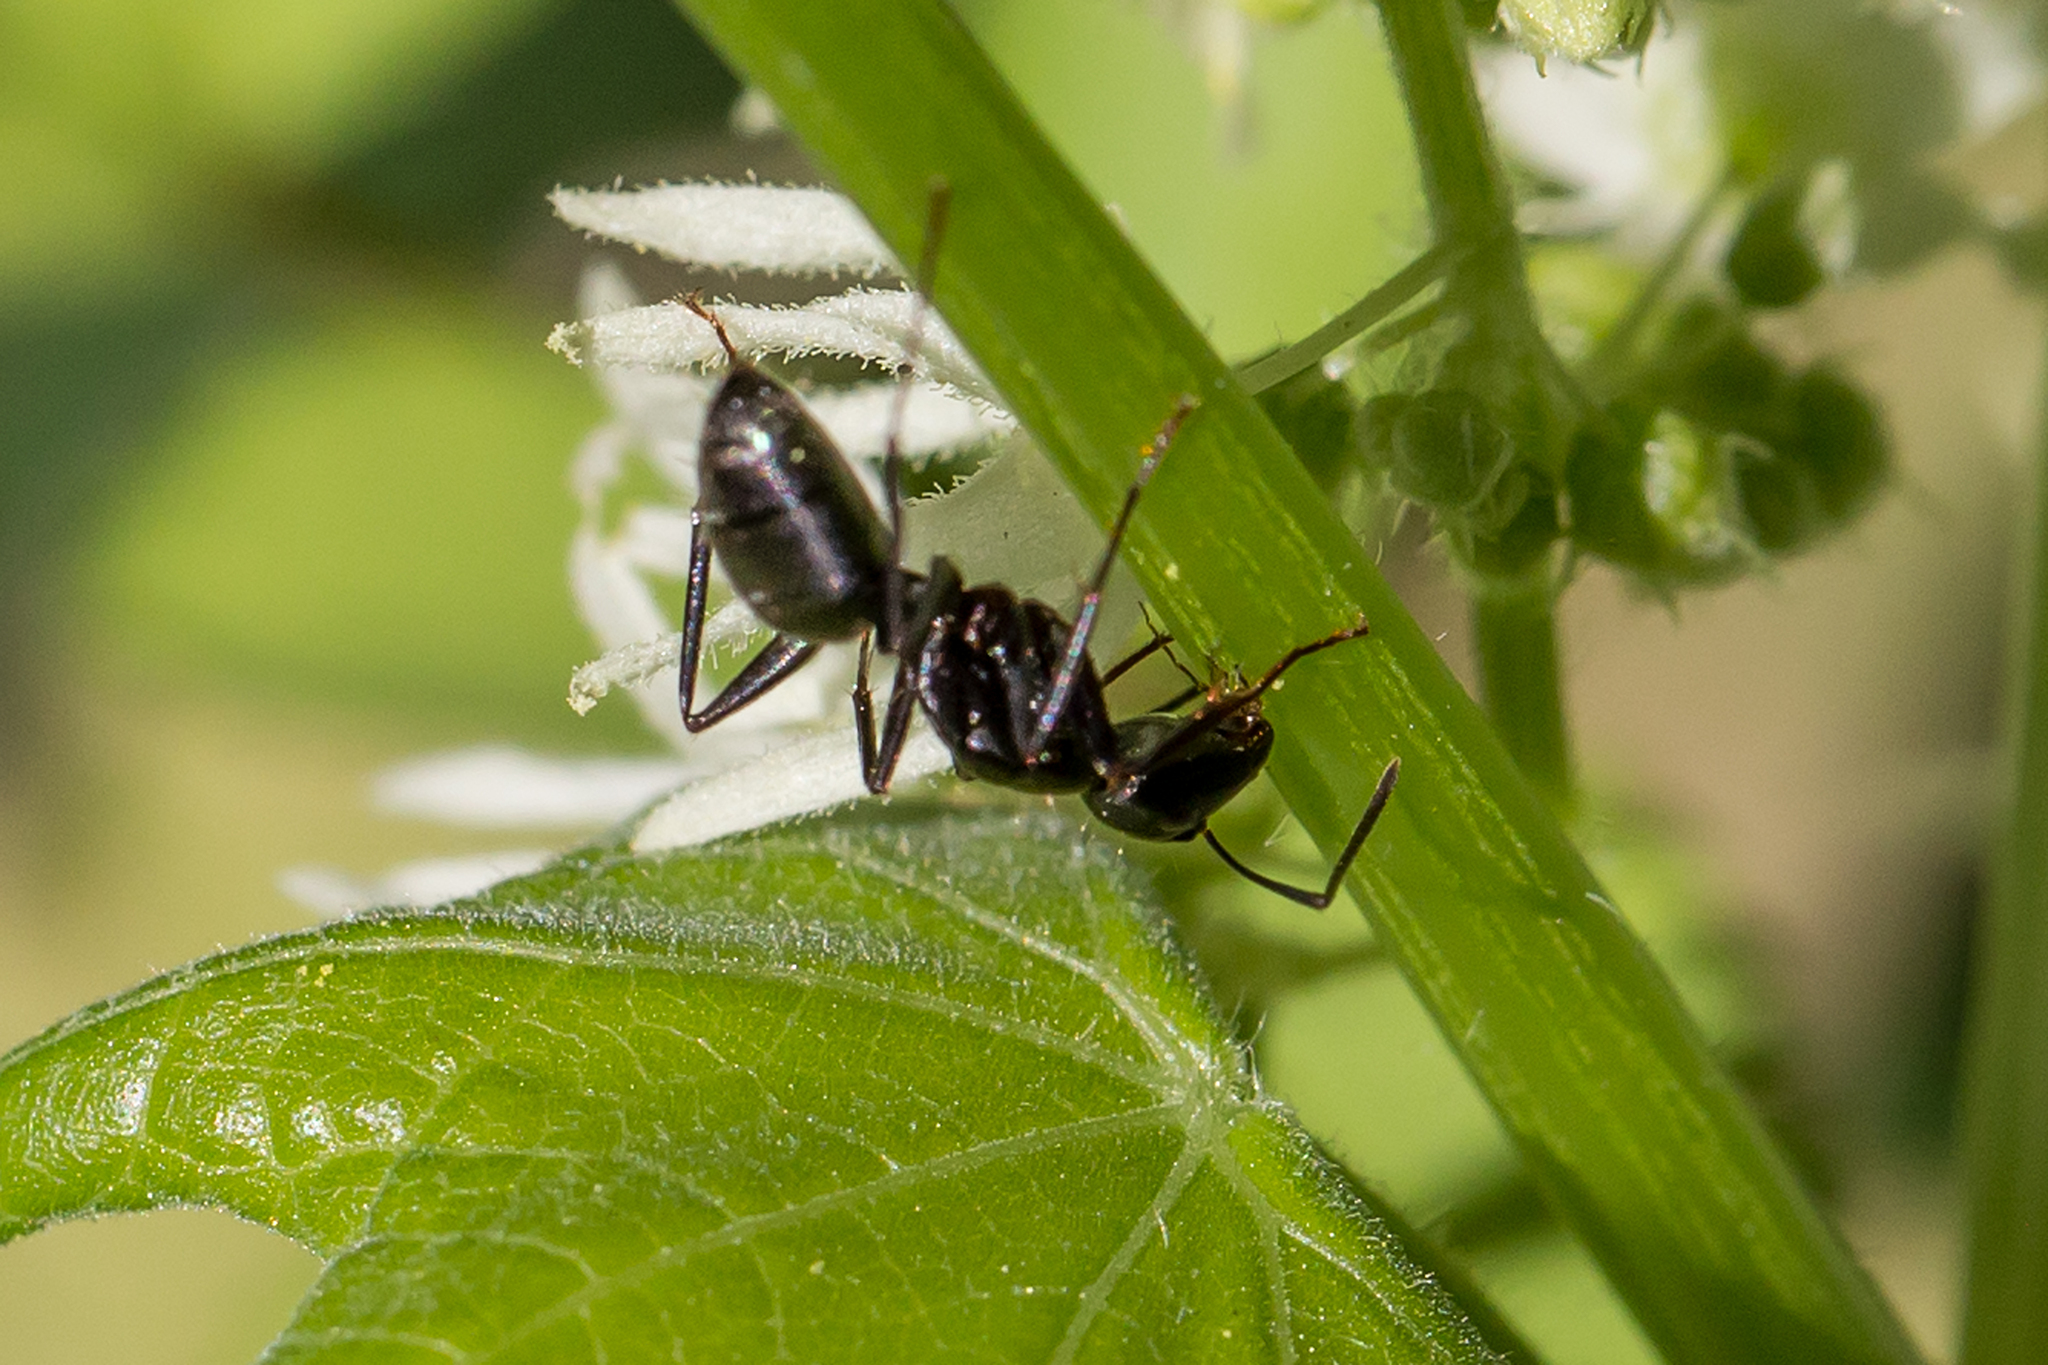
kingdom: Animalia
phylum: Arthropoda
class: Insecta
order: Hymenoptera
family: Formicidae
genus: Camponotus
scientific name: Camponotus pennsylvanicus
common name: Black carpenter ant
